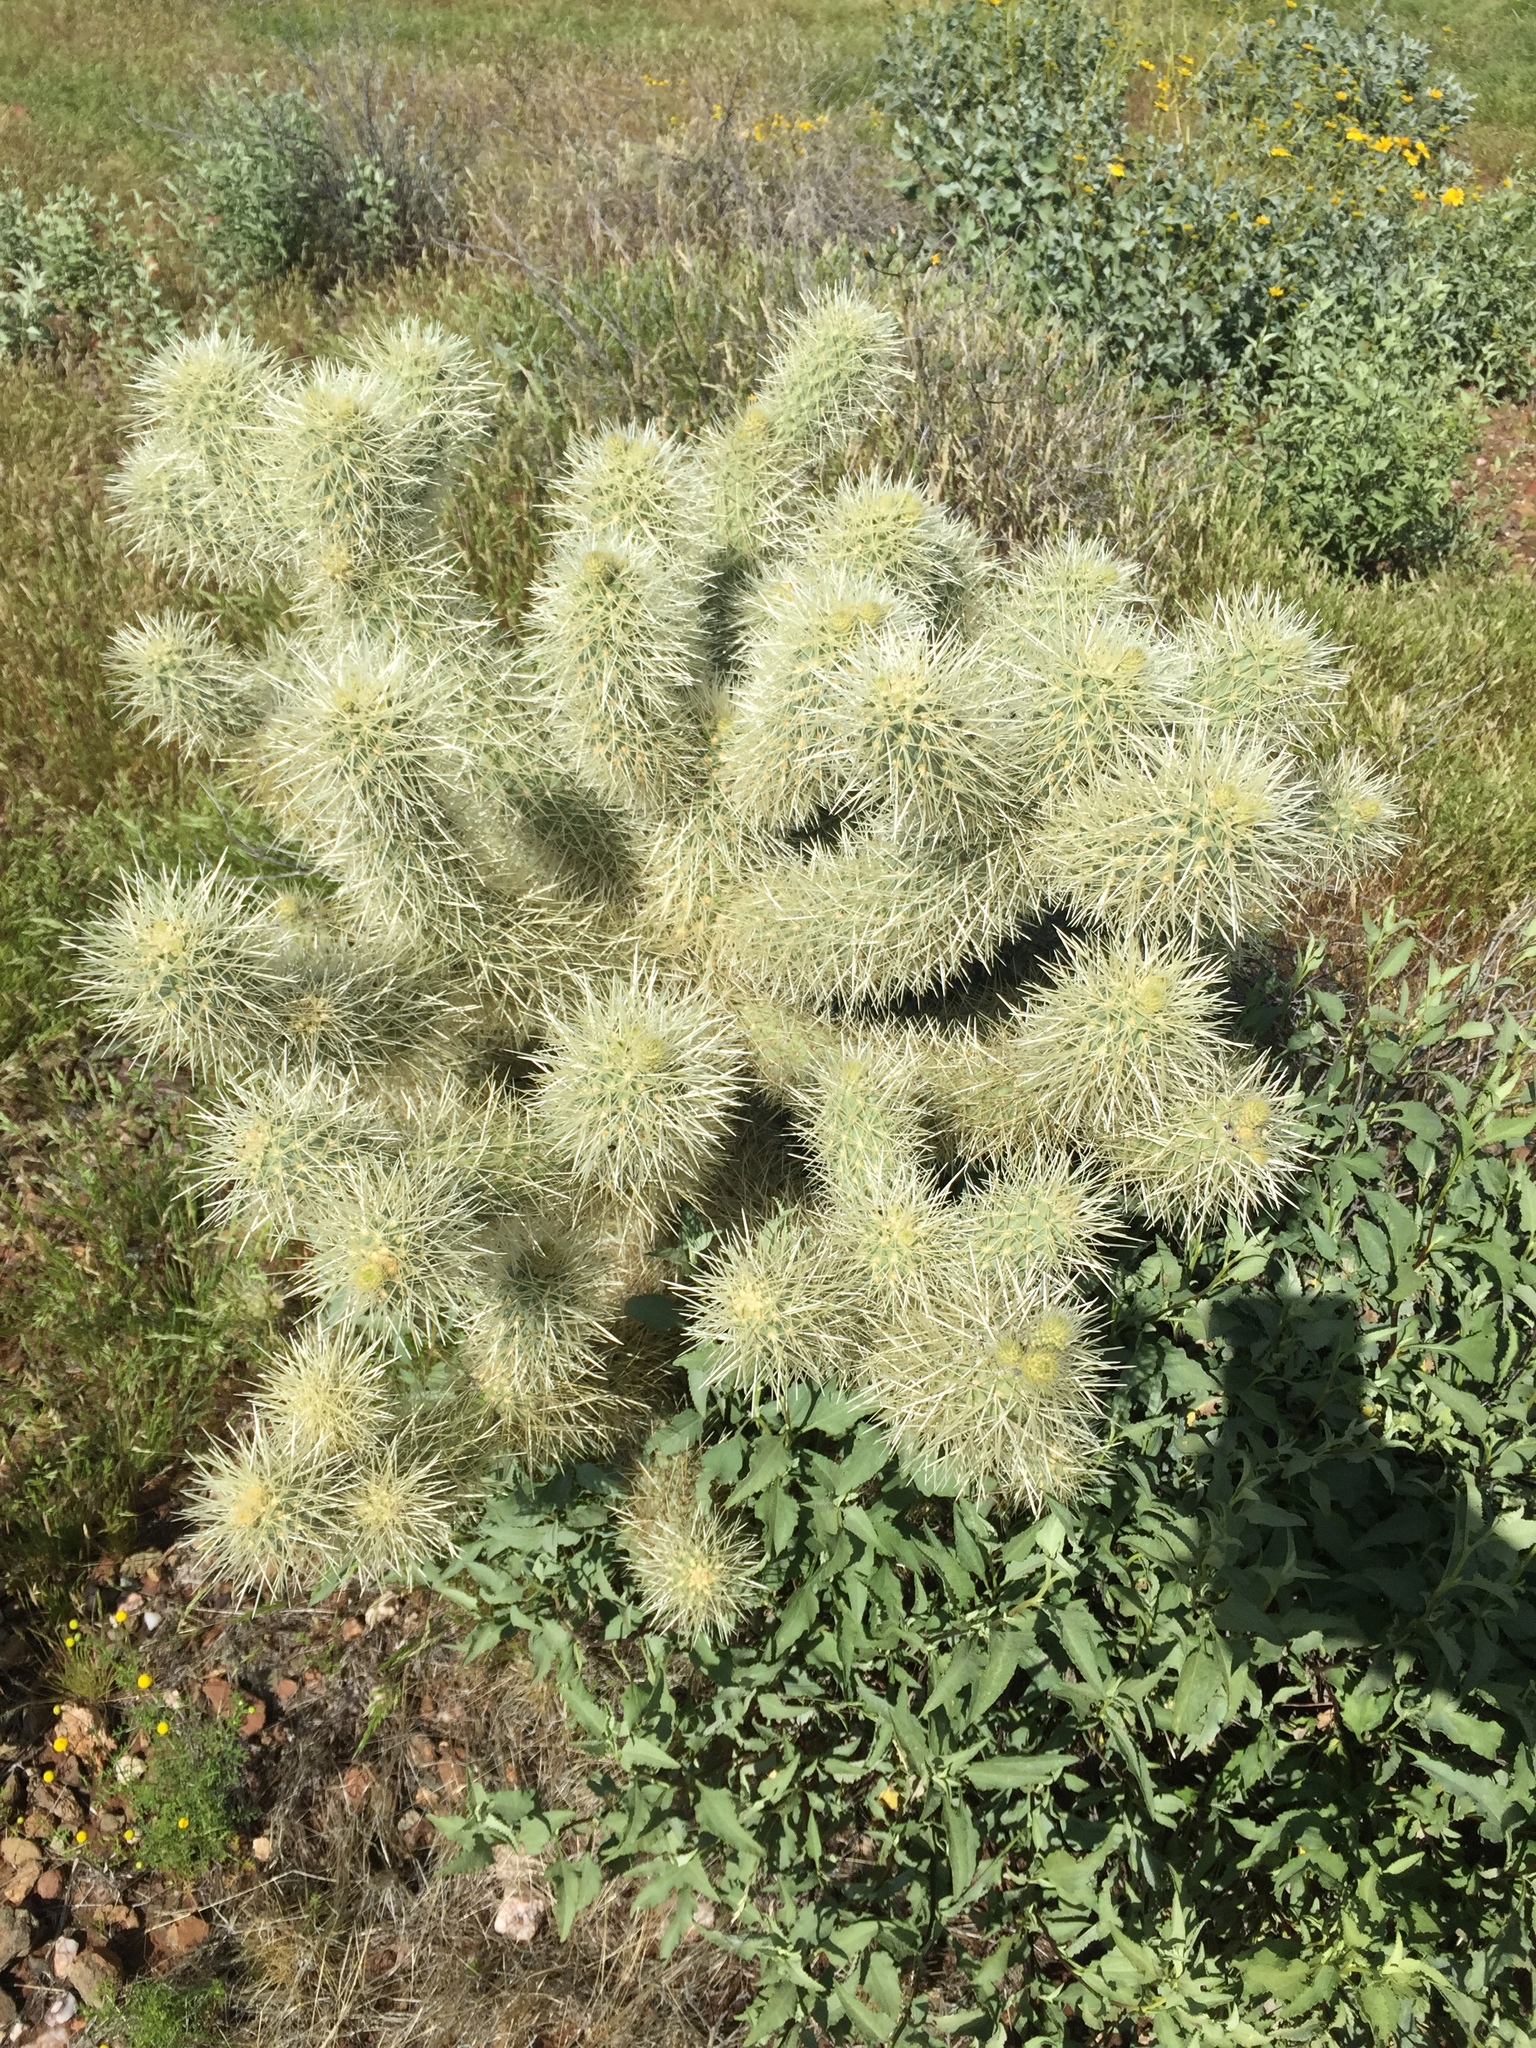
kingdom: Plantae
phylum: Tracheophyta
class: Magnoliopsida
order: Caryophyllales
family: Cactaceae
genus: Cylindropuntia
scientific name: Cylindropuntia fosbergii
